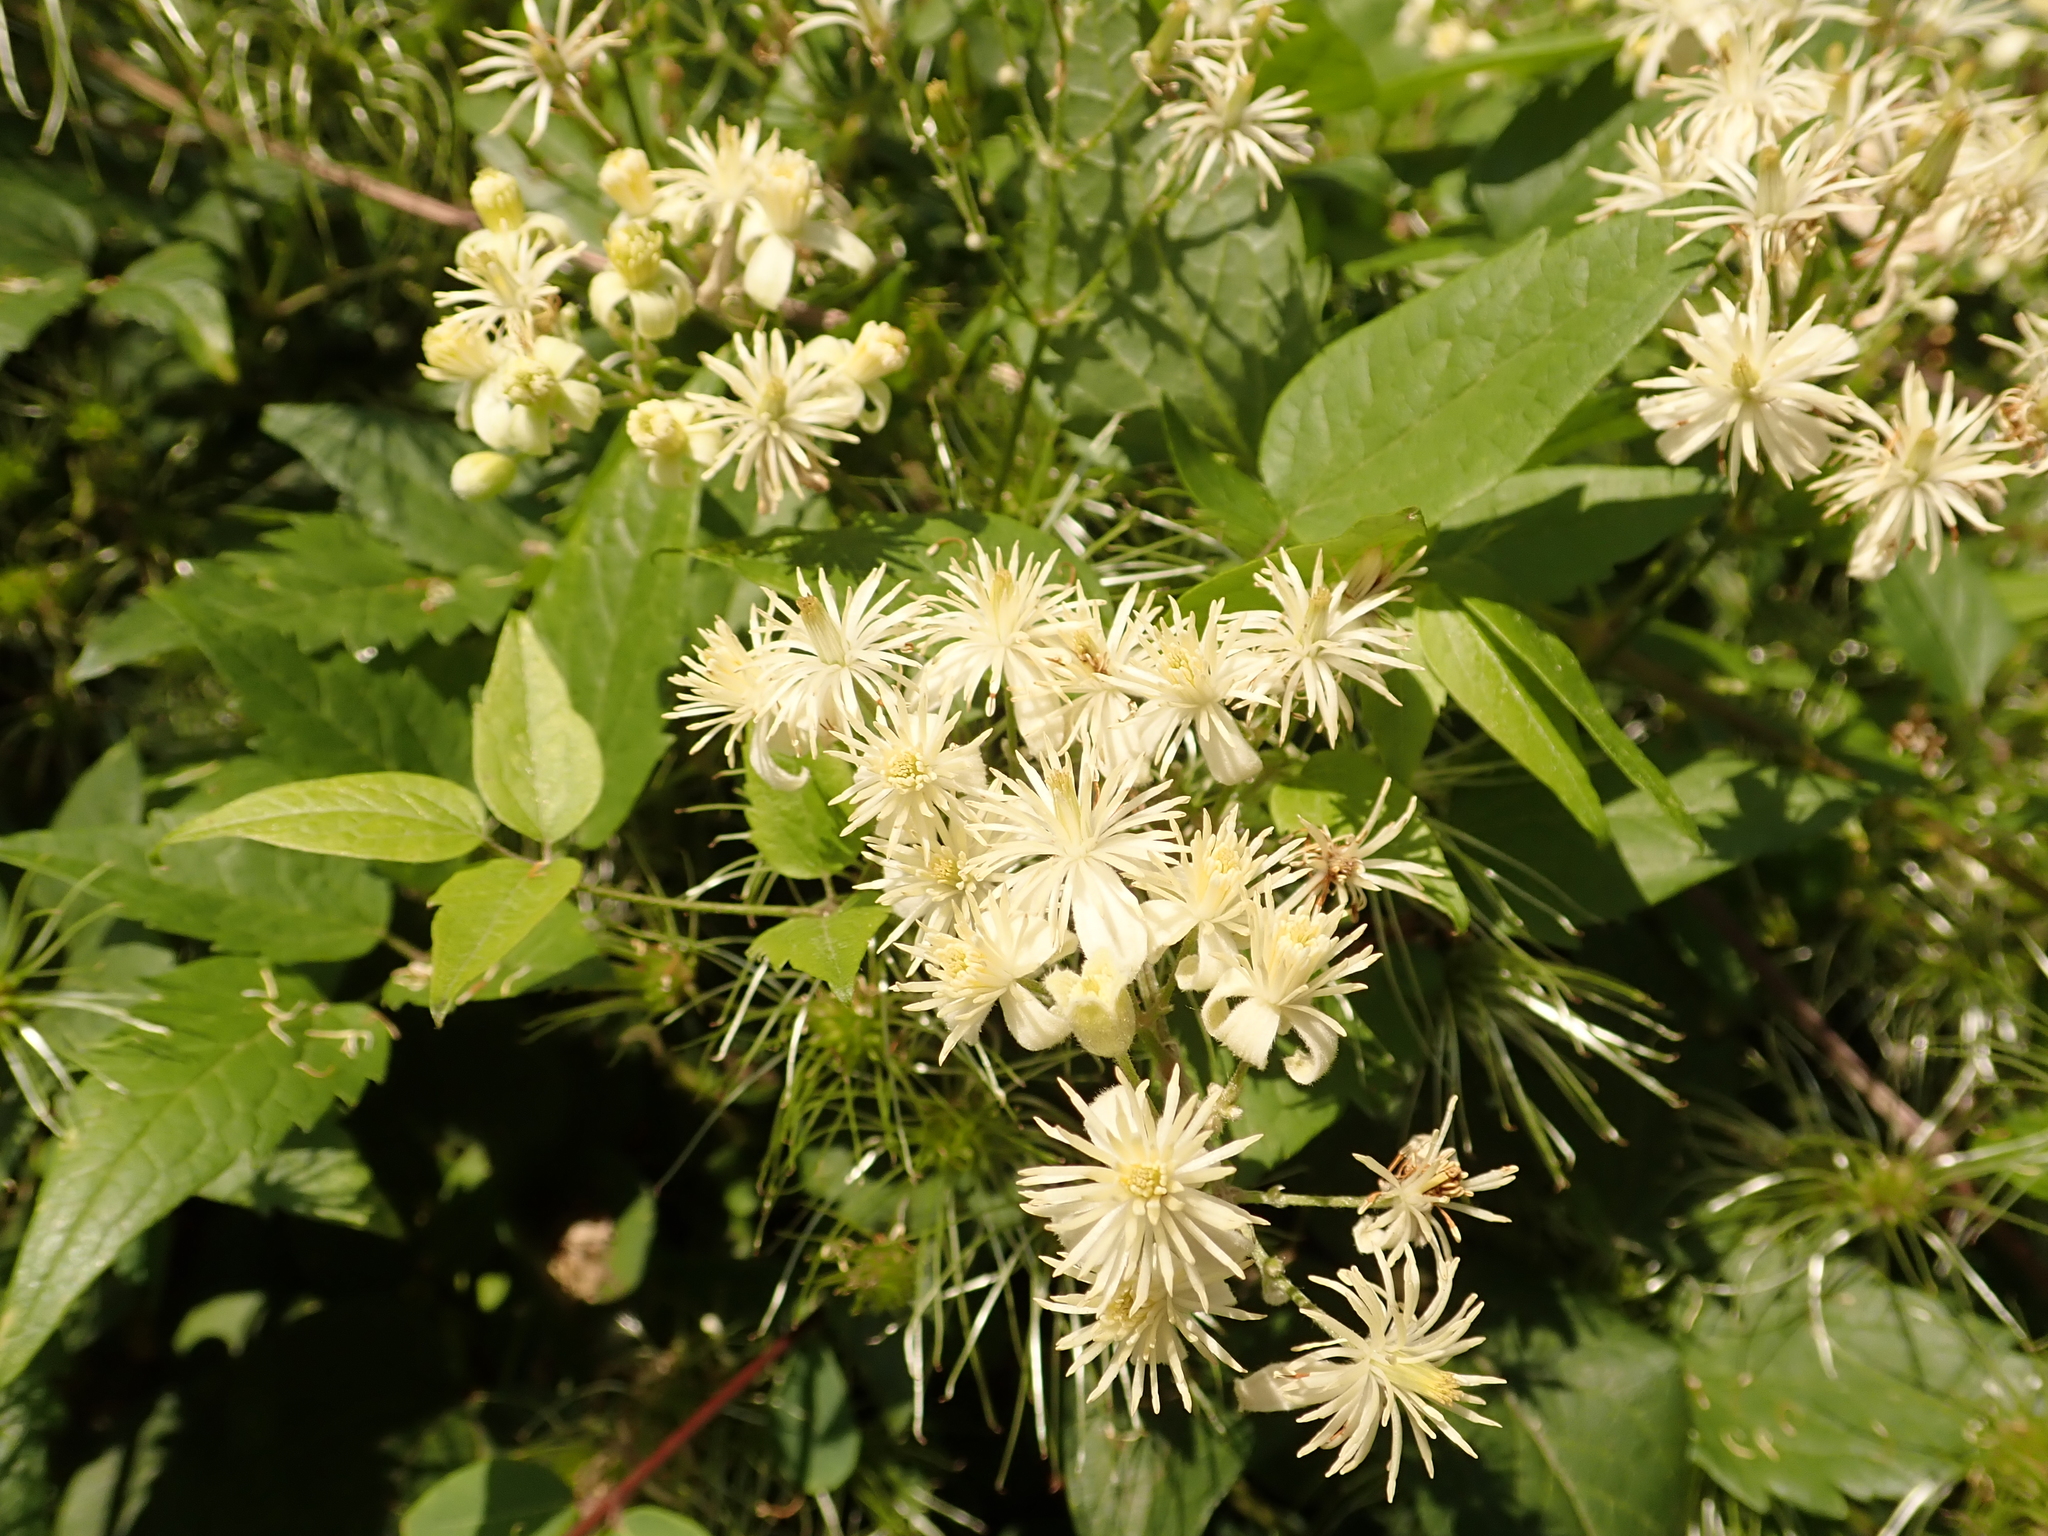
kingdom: Plantae
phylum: Tracheophyta
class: Magnoliopsida
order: Ranunculales
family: Ranunculaceae
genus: Clematis
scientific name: Clematis vitalba
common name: Evergreen clematis
